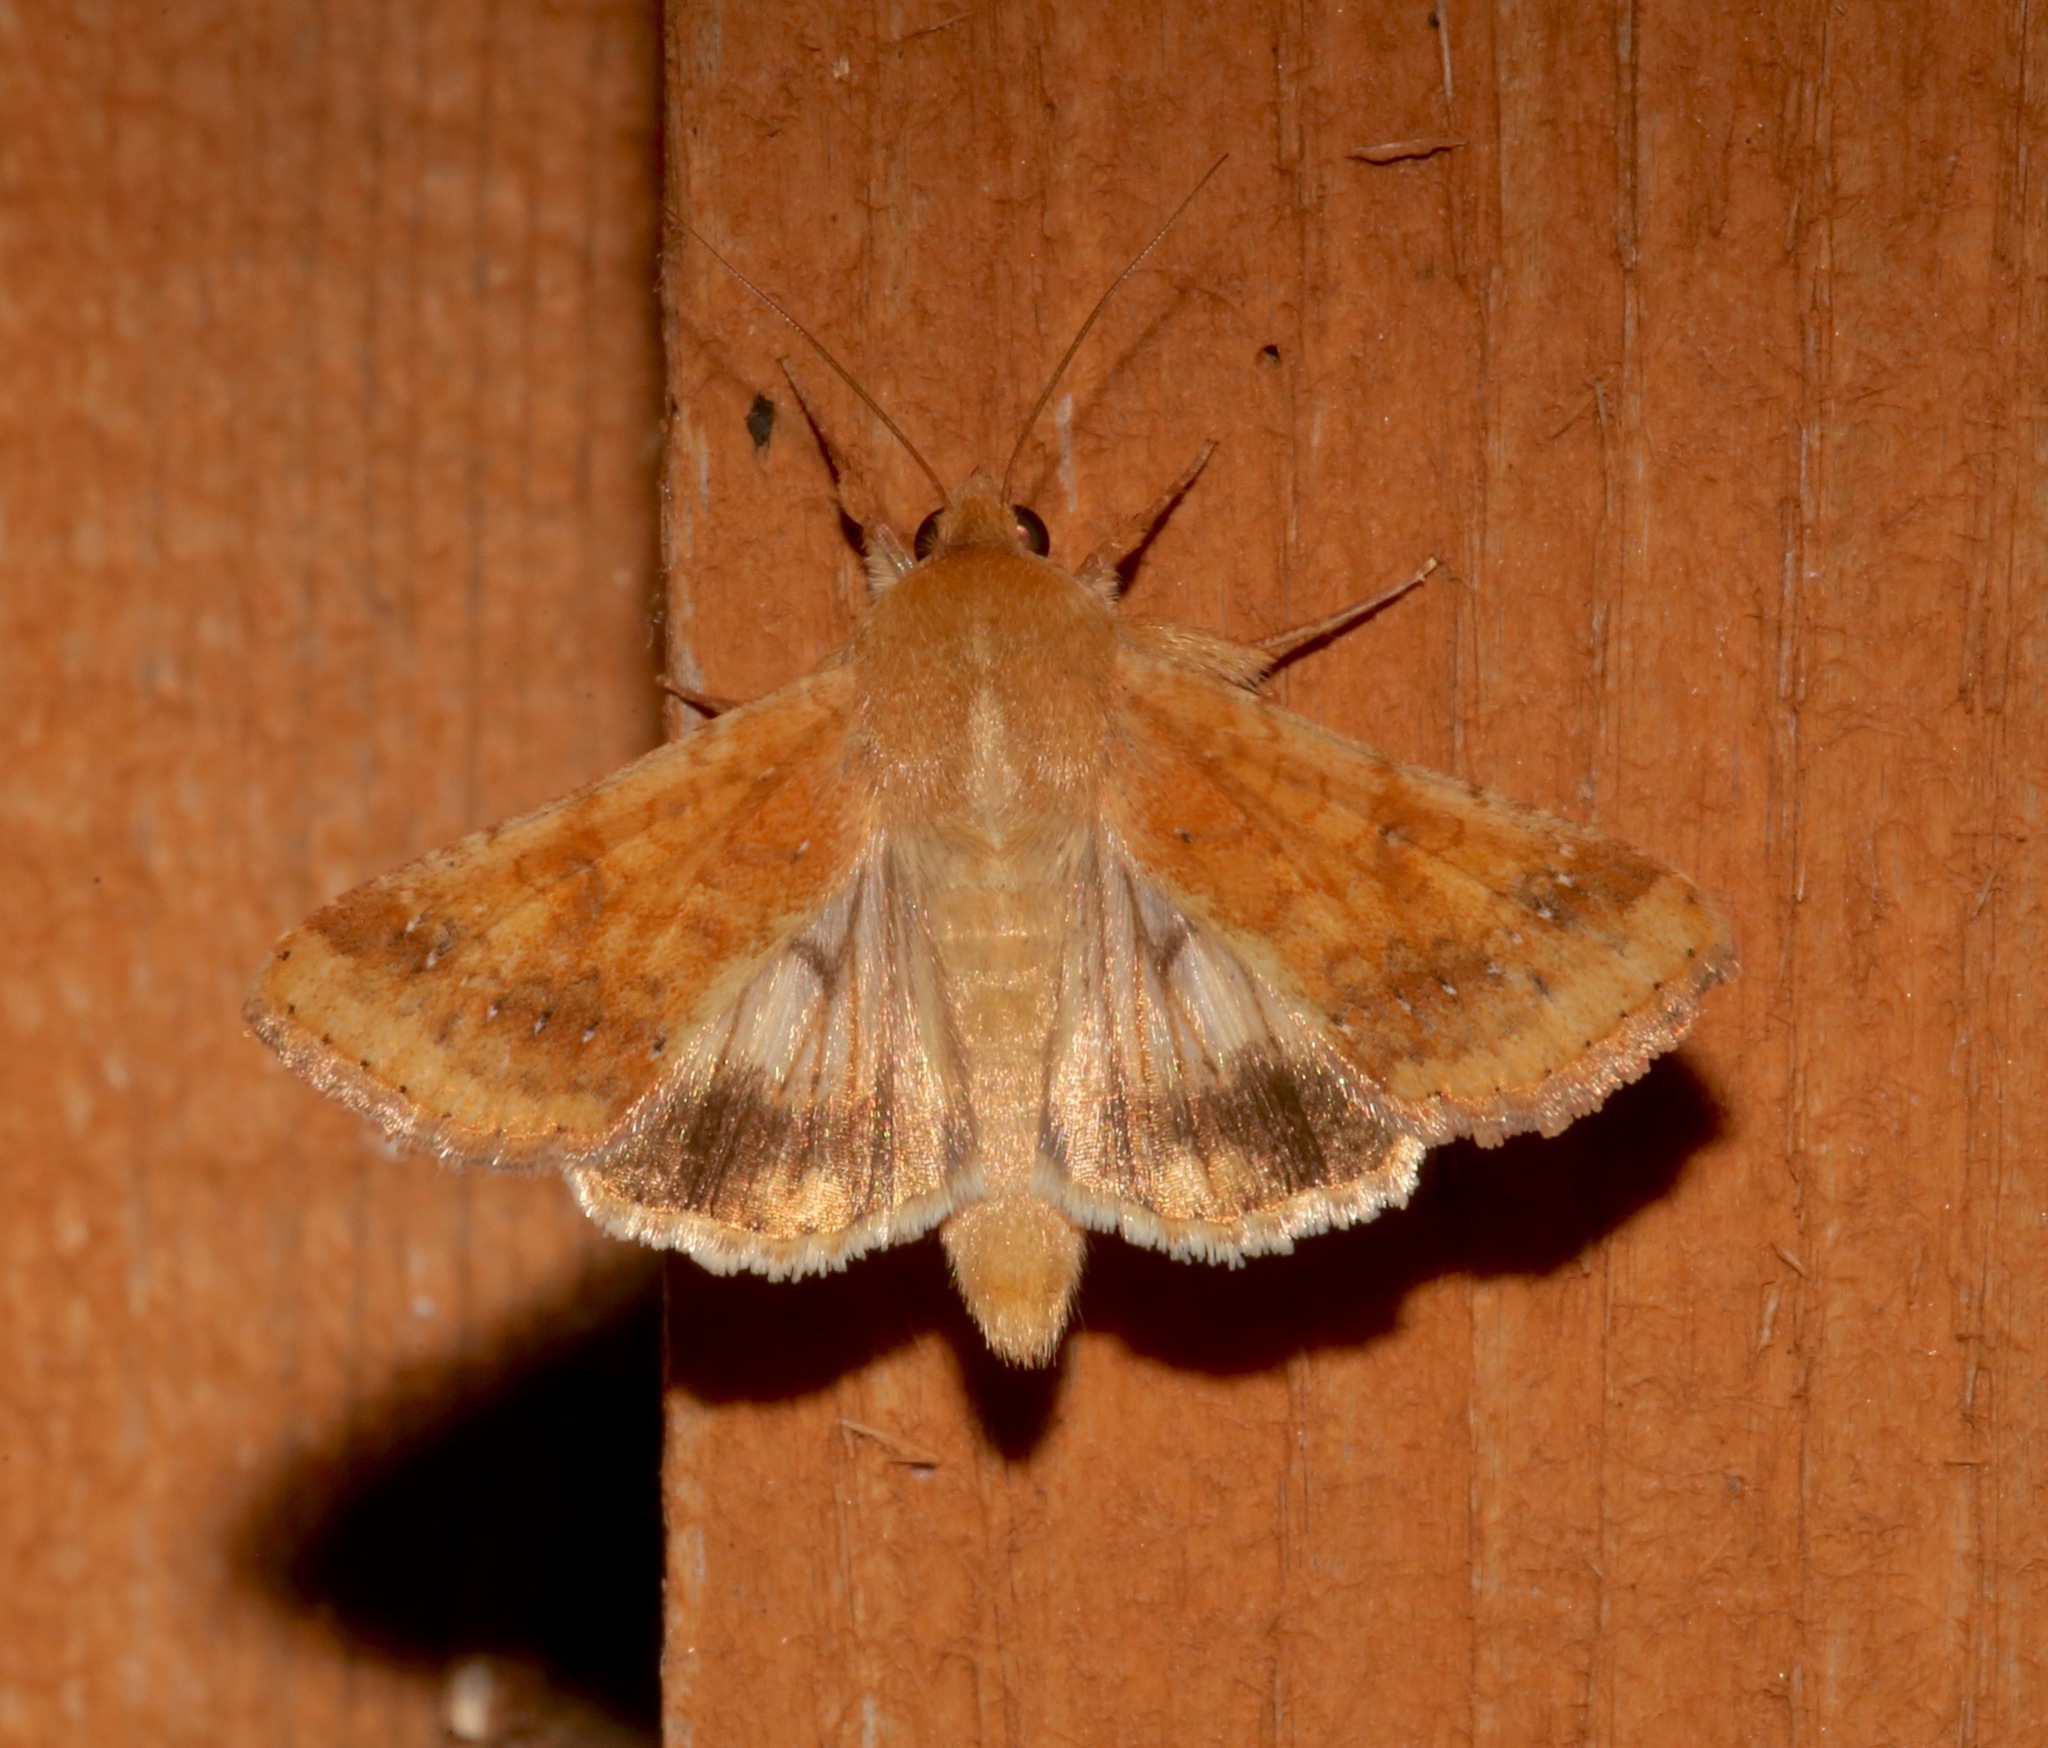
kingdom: Animalia
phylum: Arthropoda
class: Insecta
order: Lepidoptera
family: Noctuidae
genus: Helicoverpa
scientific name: Helicoverpa zea
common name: Bollworm
